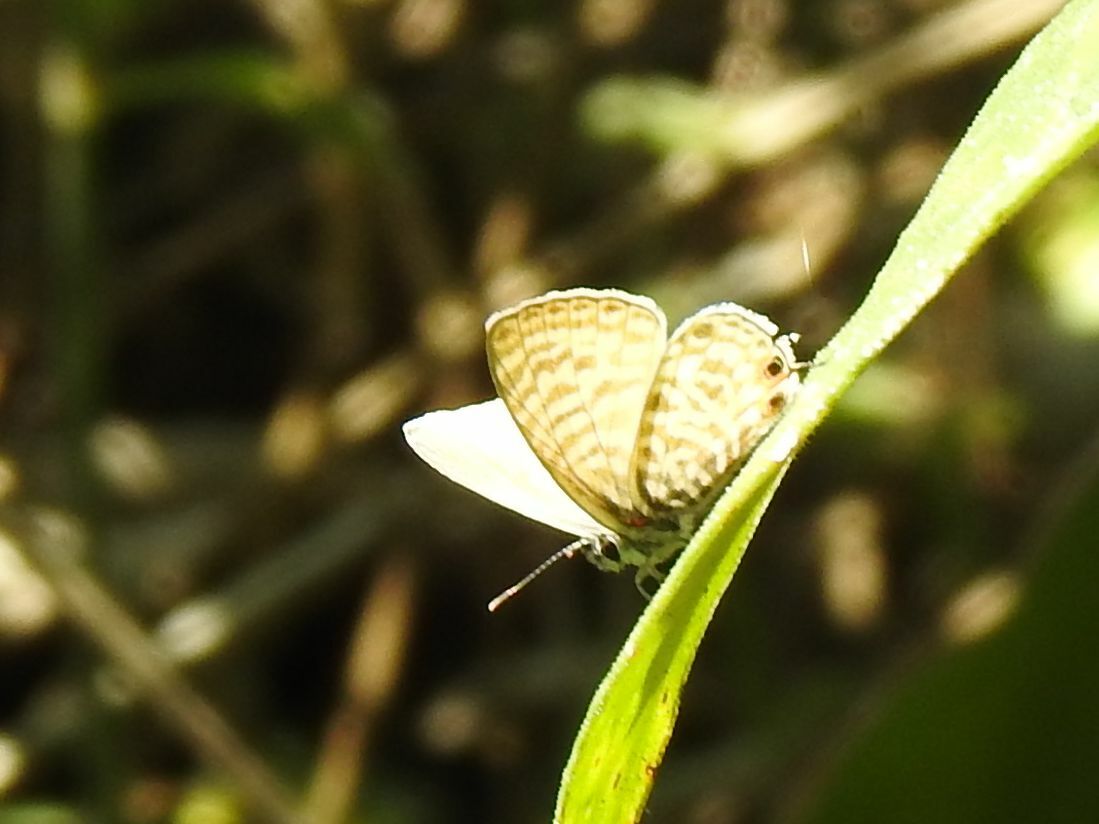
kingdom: Animalia
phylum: Arthropoda
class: Insecta
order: Lepidoptera
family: Lycaenidae
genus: Leptotes
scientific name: Leptotes
